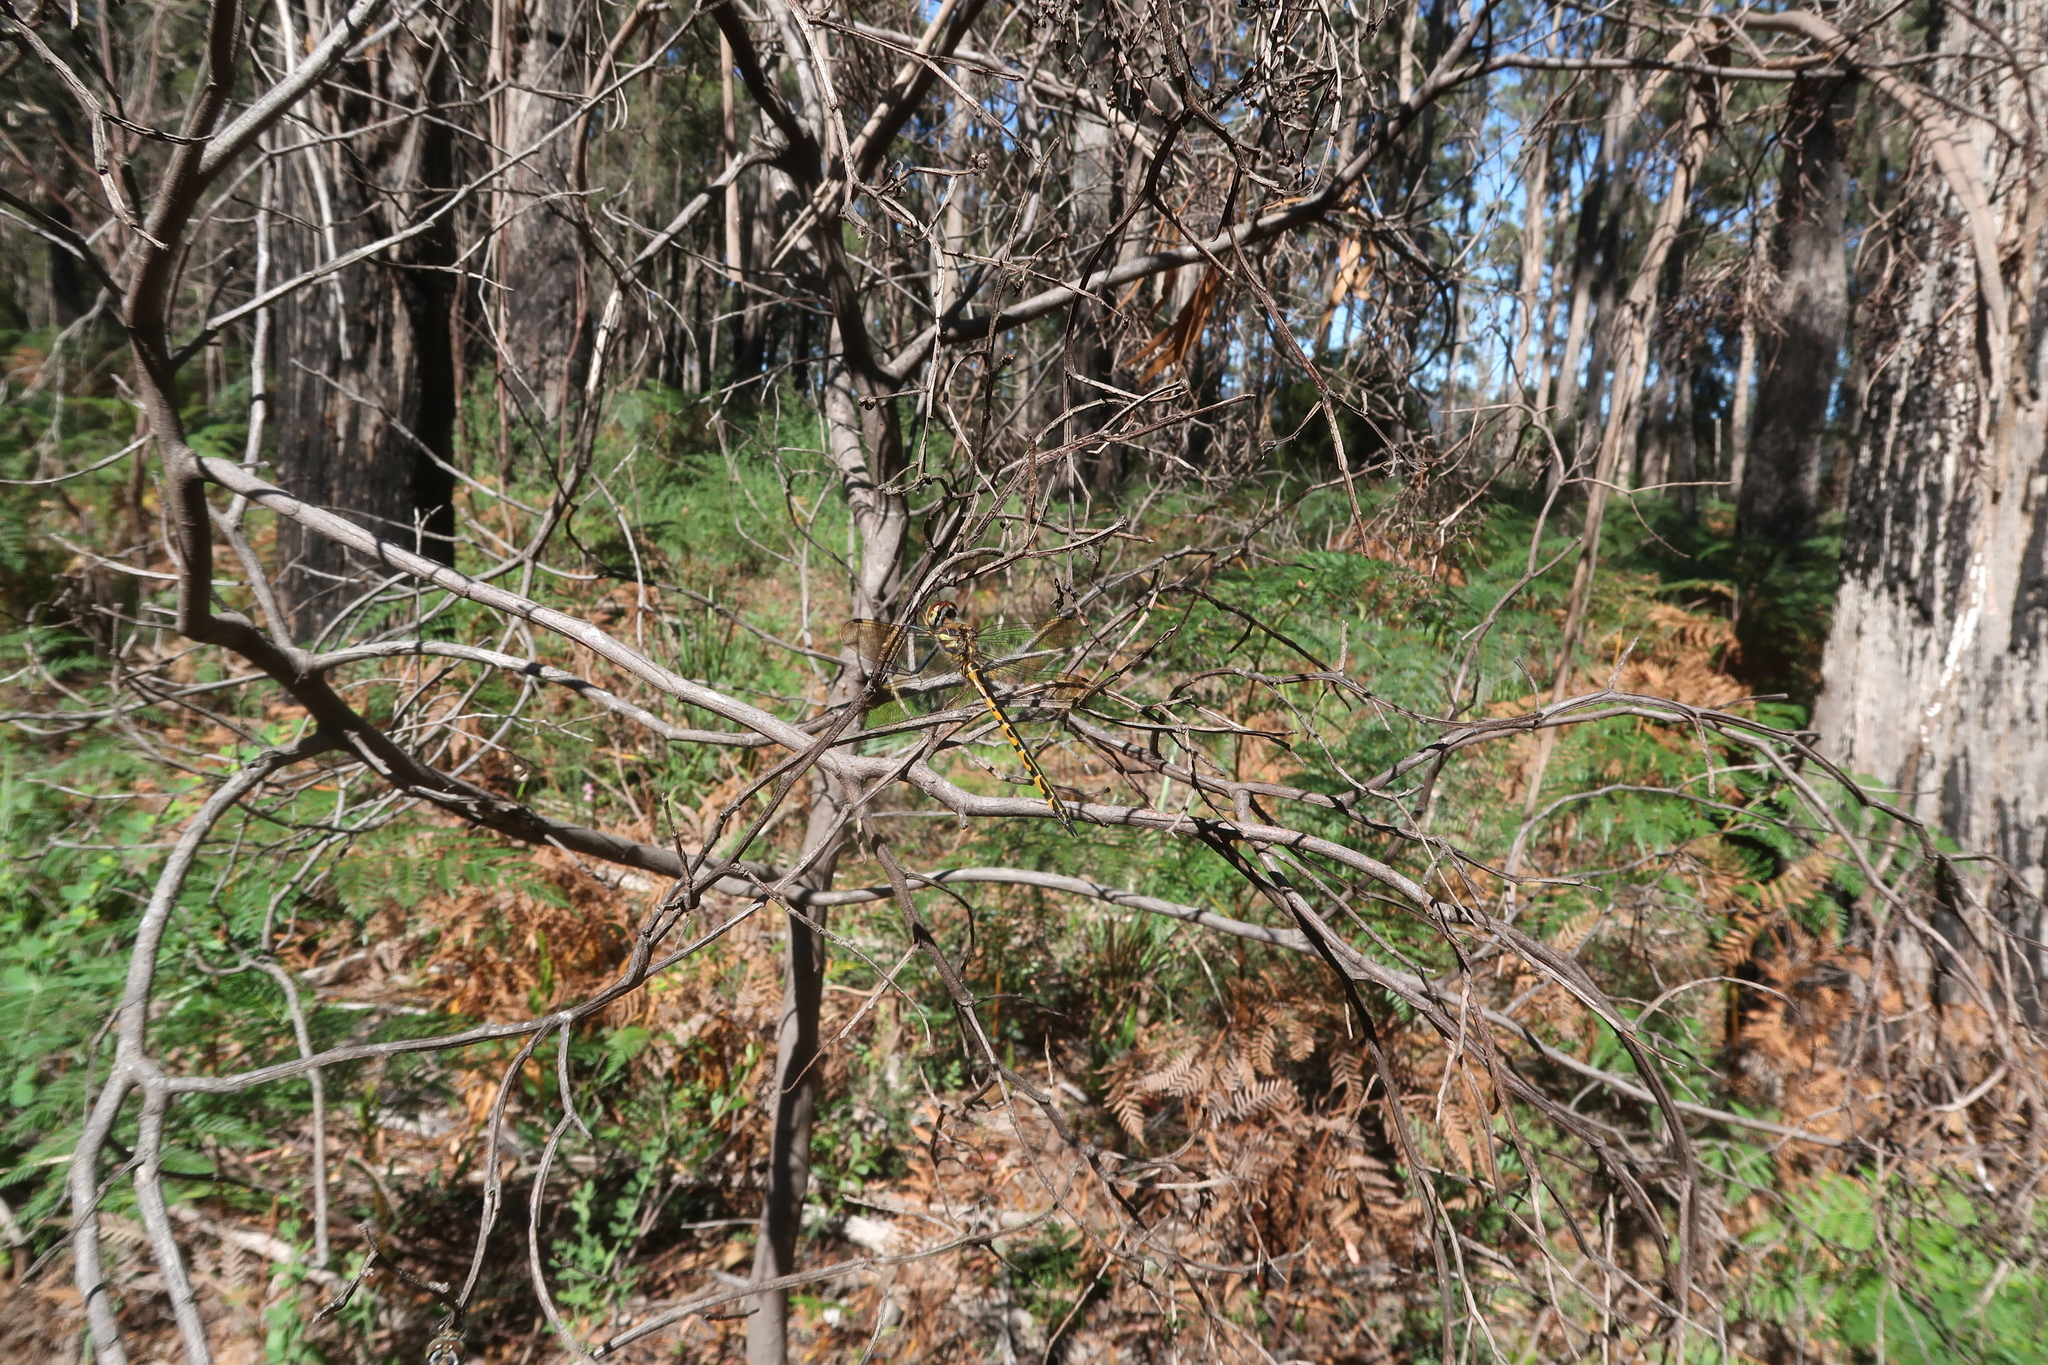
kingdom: Animalia
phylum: Arthropoda
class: Insecta
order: Odonata
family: Corduliidae
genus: Hemicordulia
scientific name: Hemicordulia australiae
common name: Sentry dragonfly
